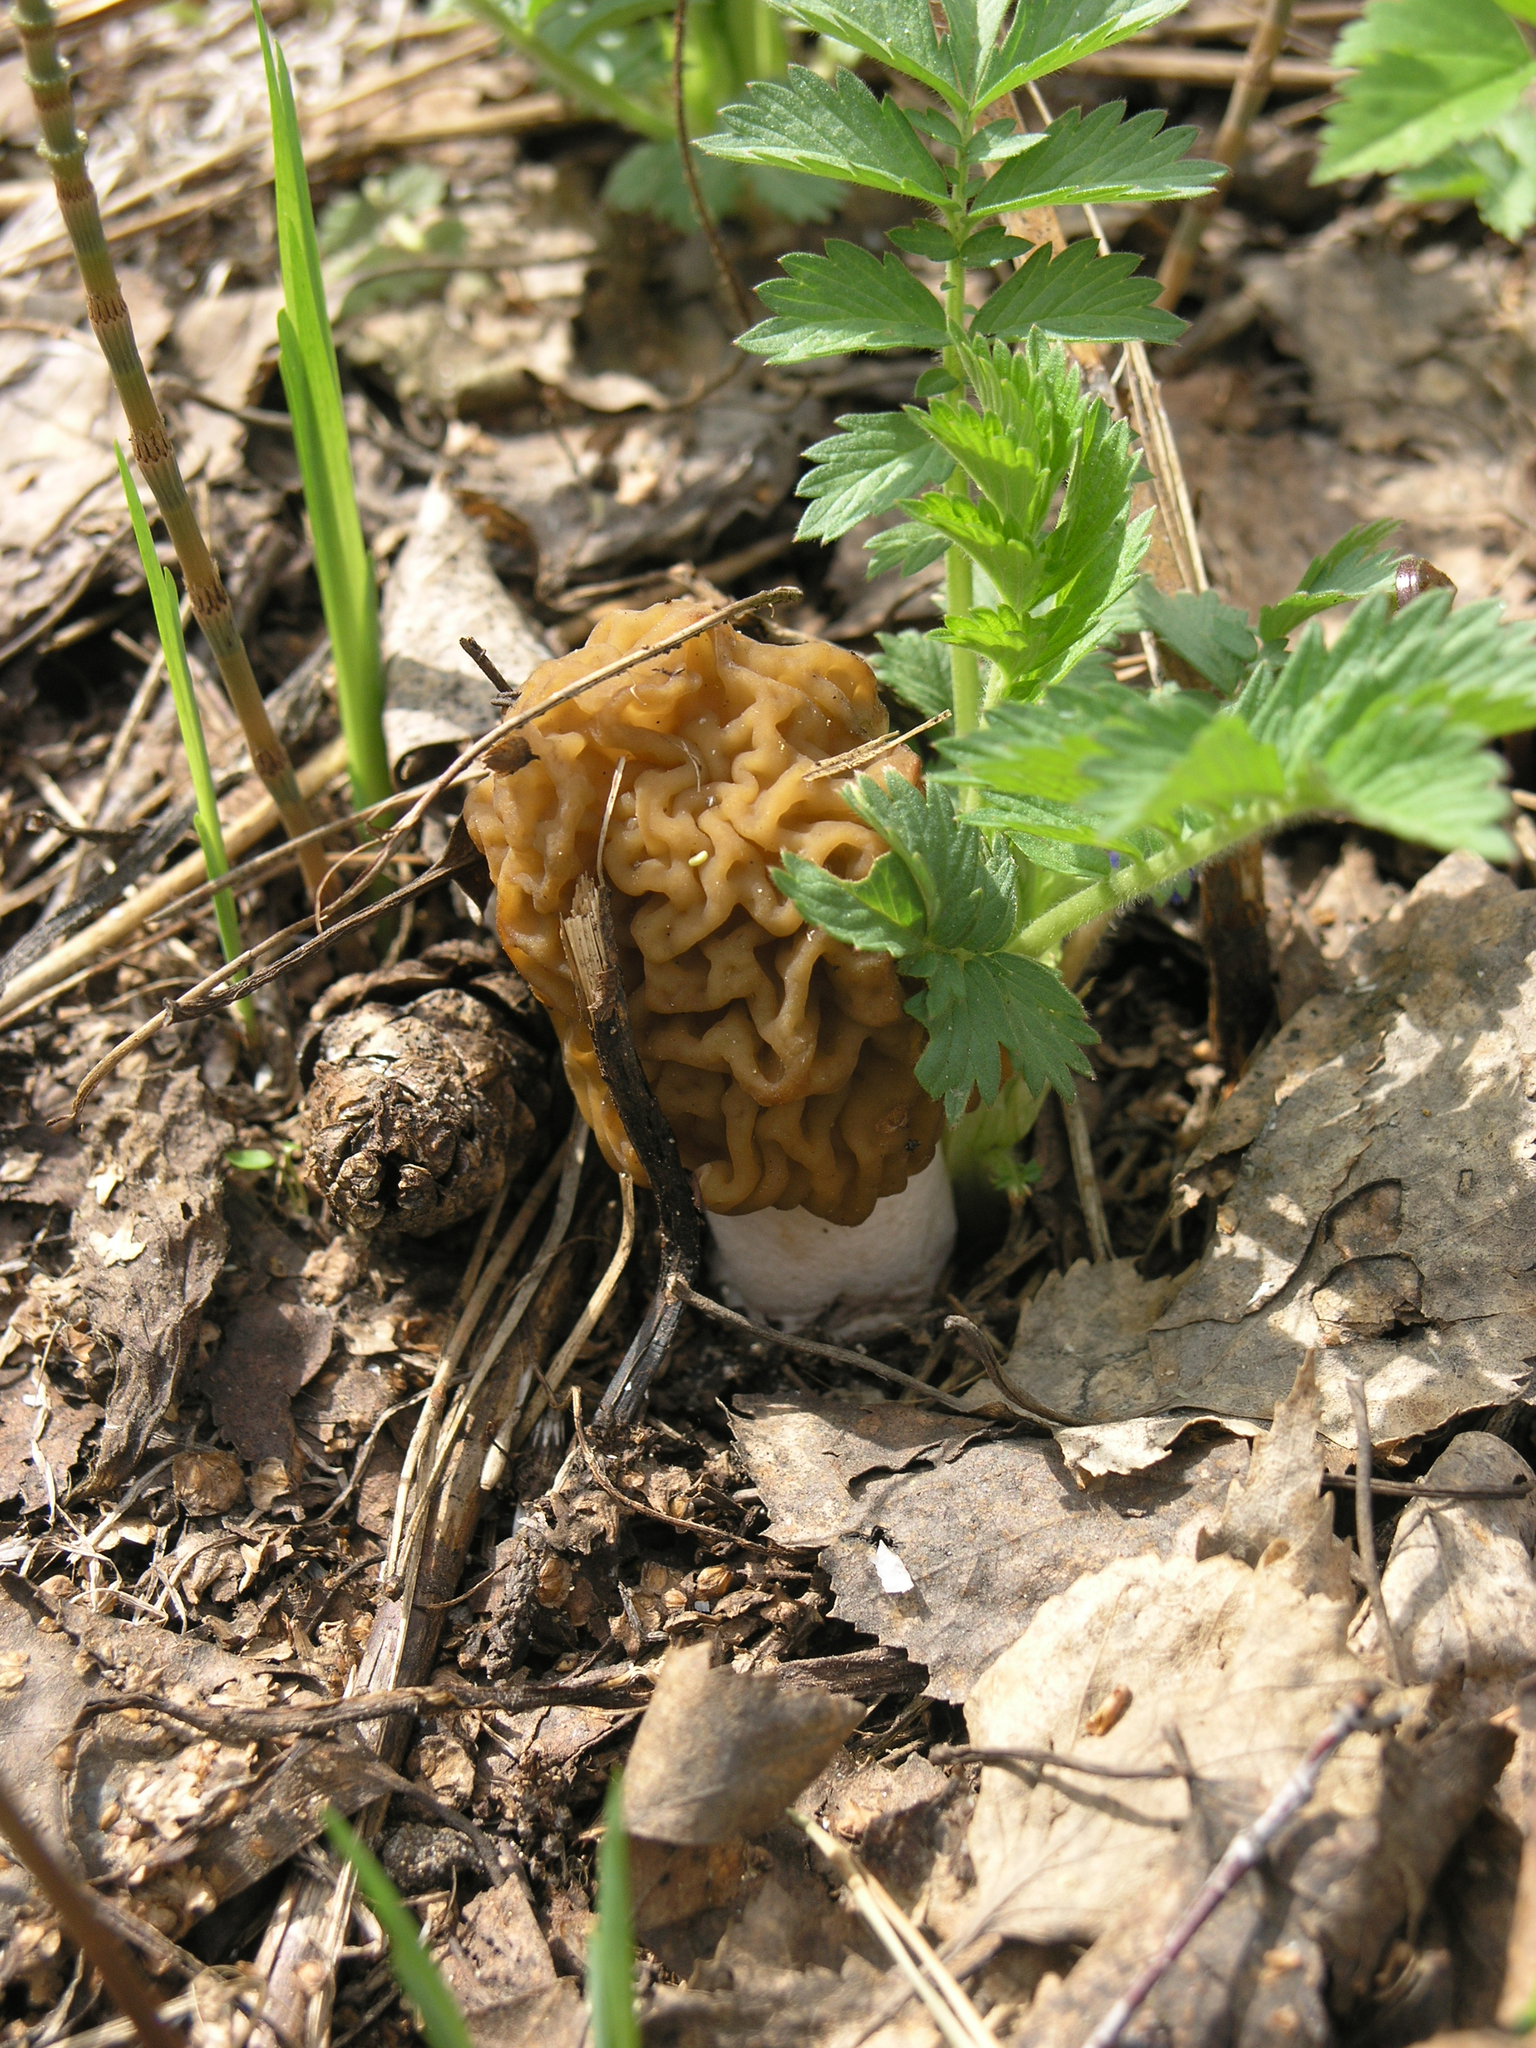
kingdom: Fungi
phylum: Ascomycota
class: Pezizomycetes
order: Pezizales
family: Morchellaceae
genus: Verpa
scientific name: Verpa bohemica
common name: Wrinkled thimble morel
